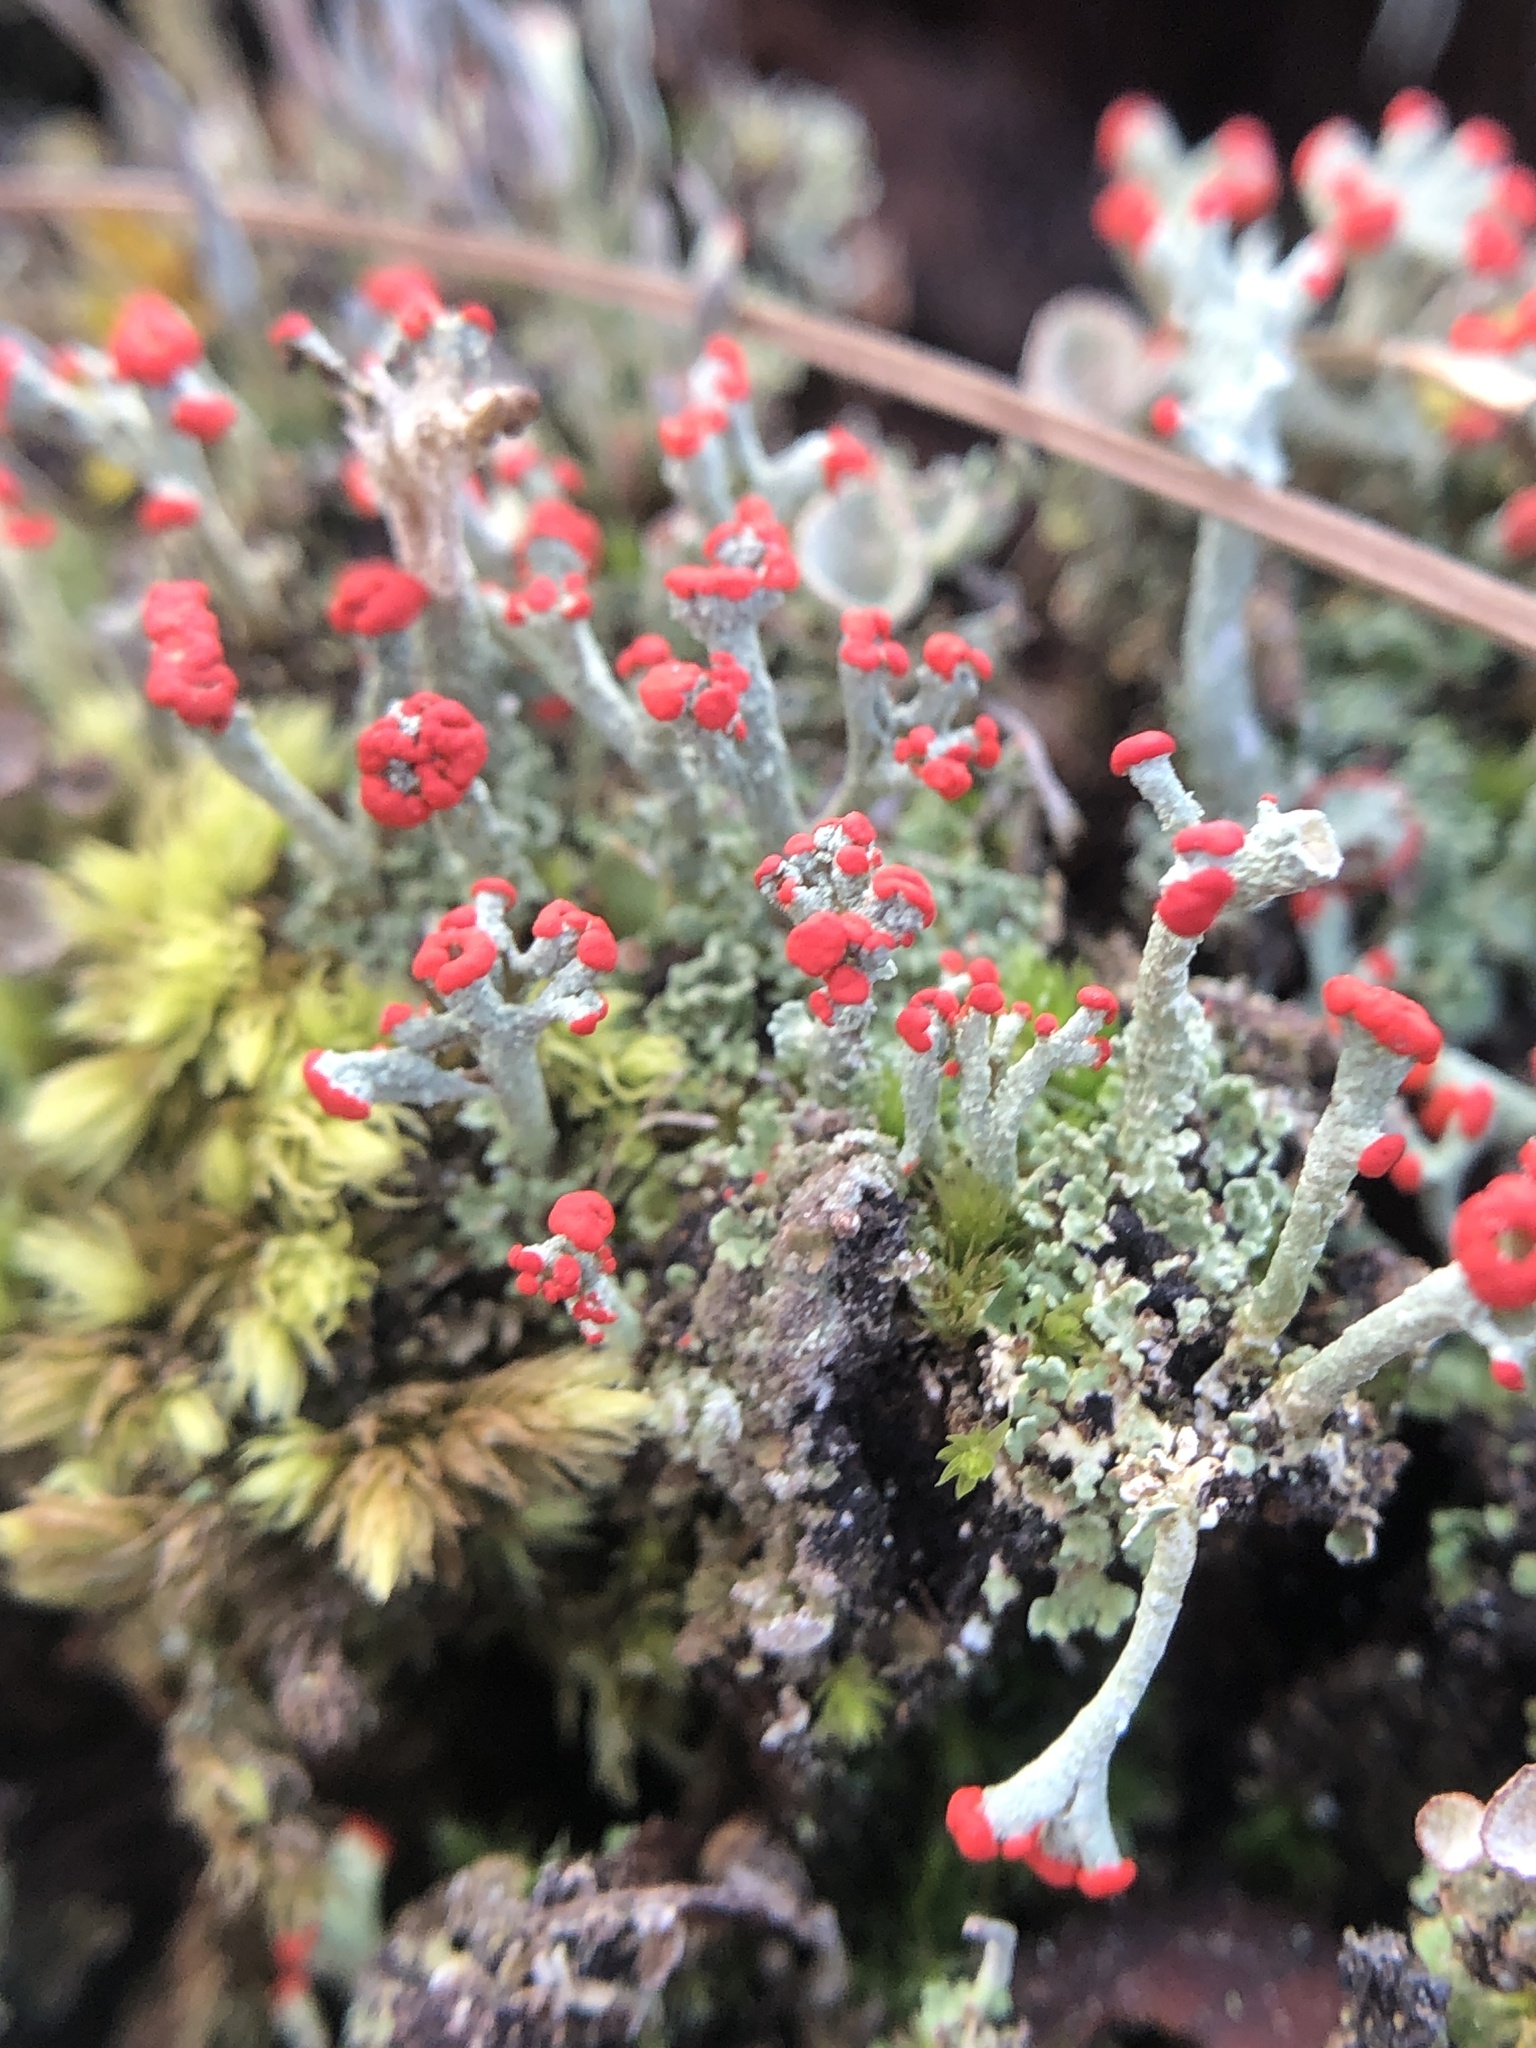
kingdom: Fungi
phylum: Ascomycota
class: Lecanoromycetes
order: Lecanorales
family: Cladoniaceae
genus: Cladonia
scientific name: Cladonia cristatella
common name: British soldier lichen
